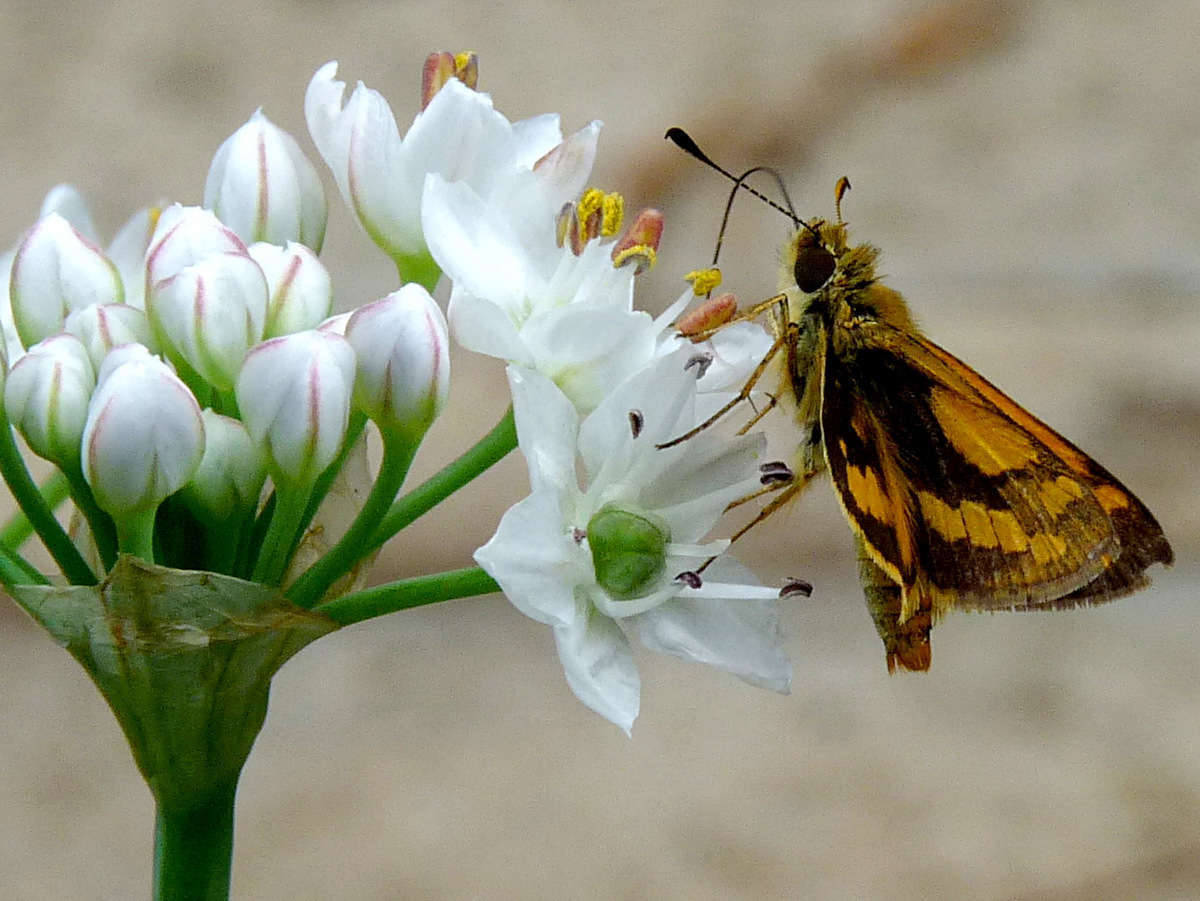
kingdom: Animalia
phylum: Arthropoda
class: Insecta
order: Lepidoptera
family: Hesperiidae
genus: Ocybadistes
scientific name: Ocybadistes walkeri
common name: Yellow-banded dart
